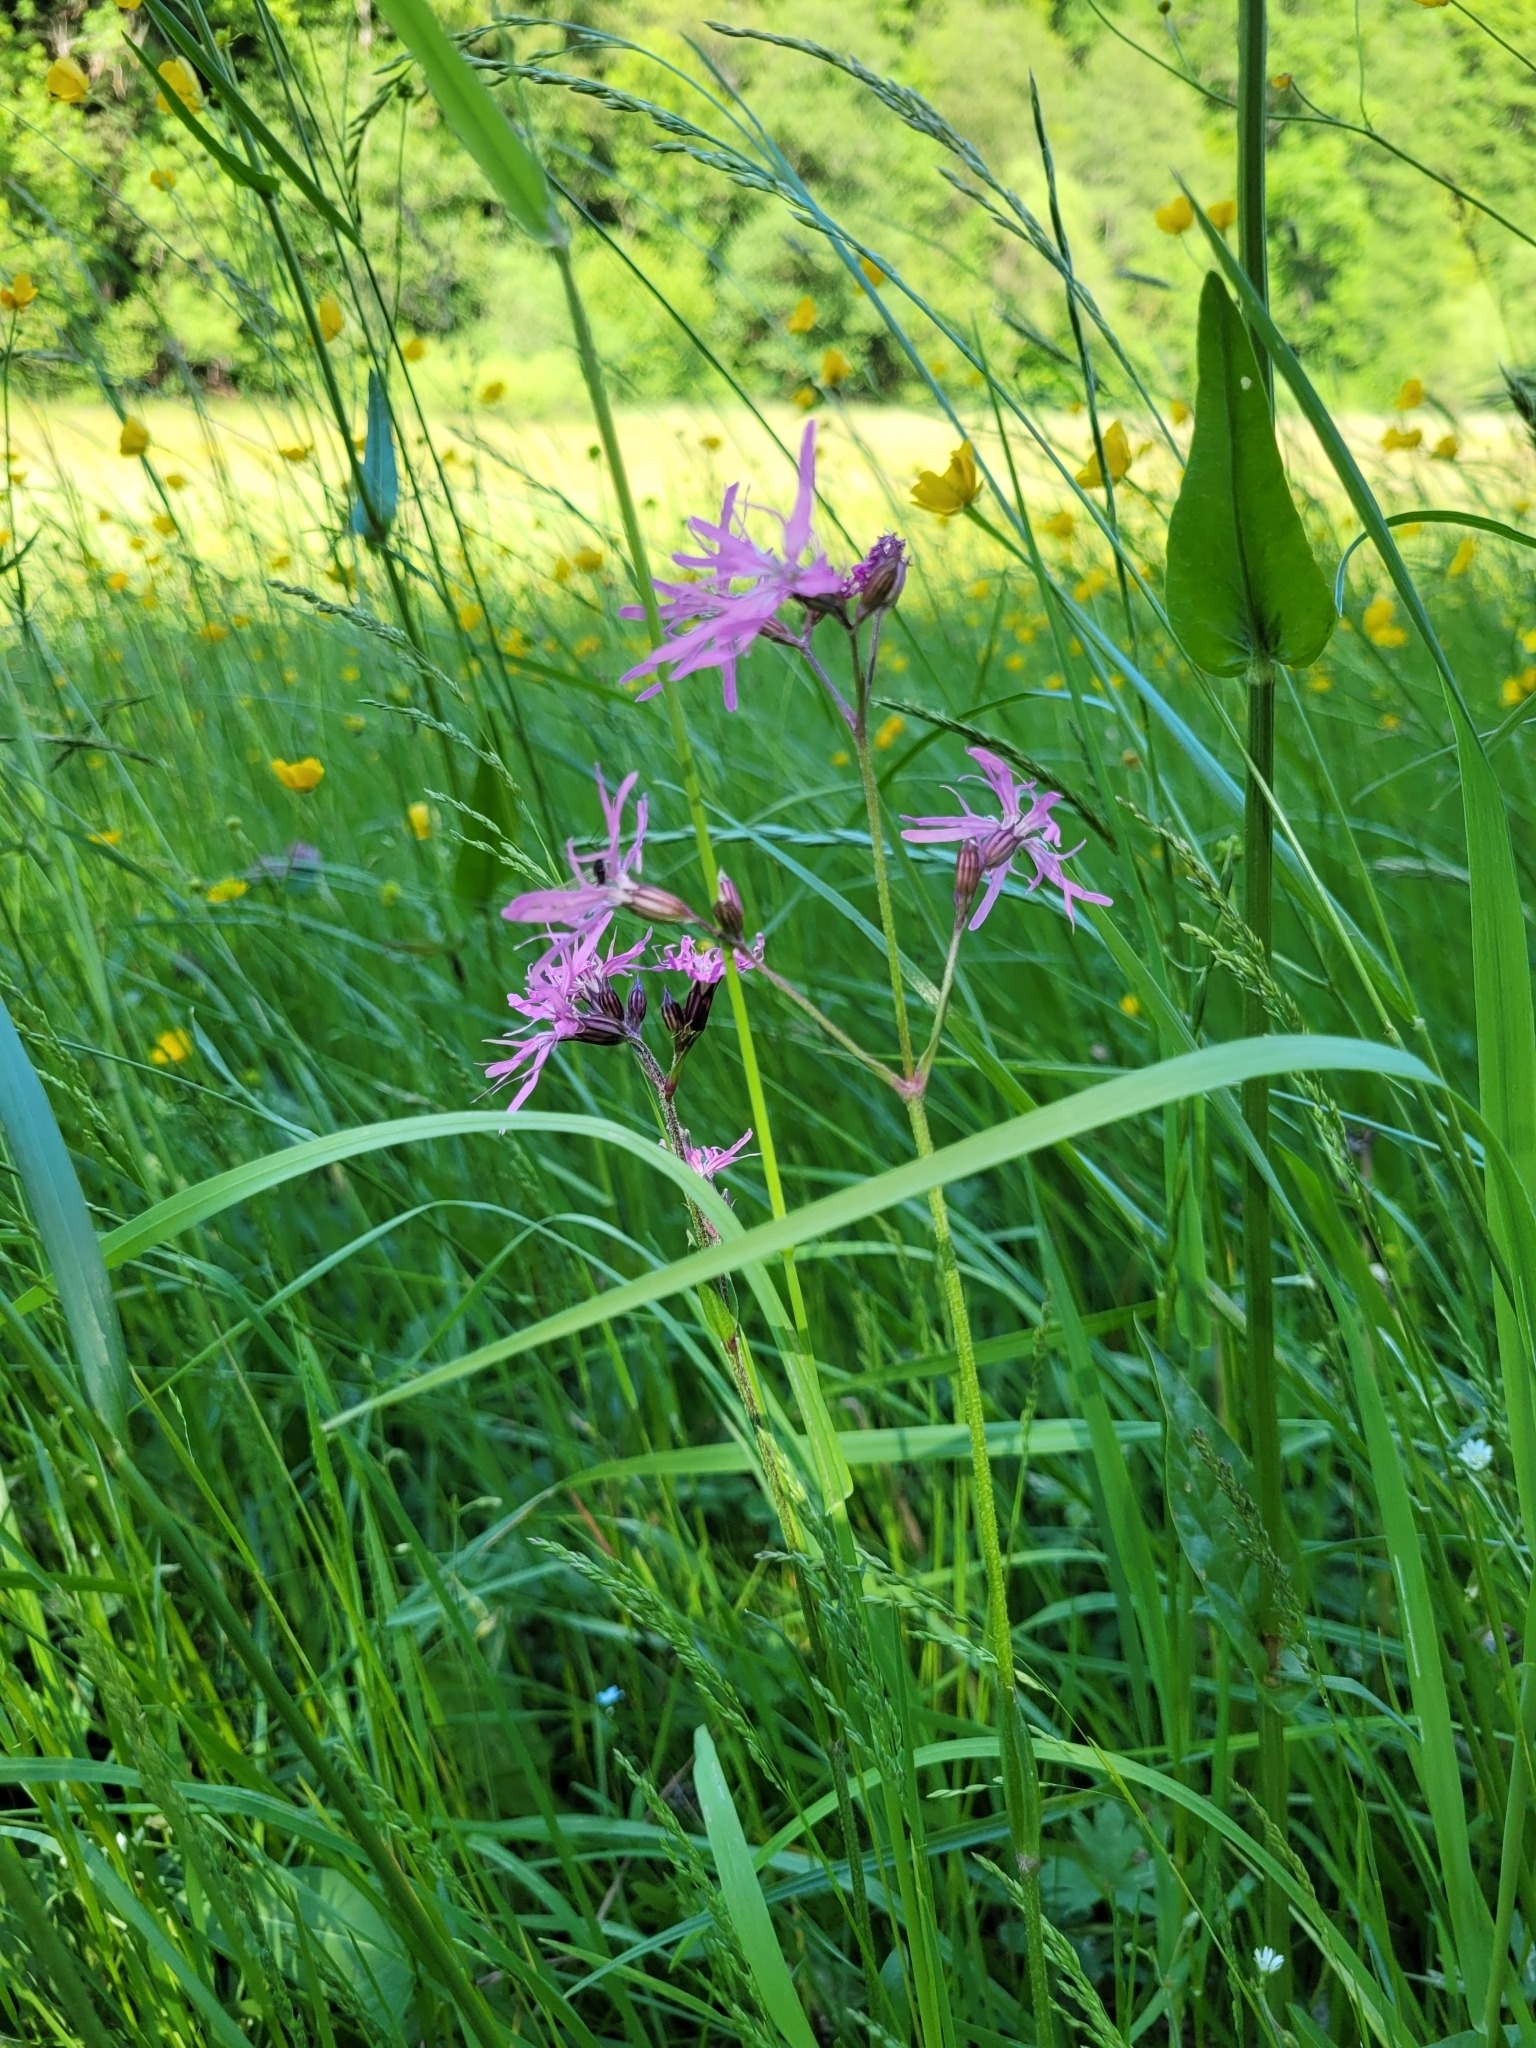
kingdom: Plantae
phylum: Tracheophyta
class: Magnoliopsida
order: Caryophyllales
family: Caryophyllaceae
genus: Silene
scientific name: Silene flos-cuculi
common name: Ragged-robin
